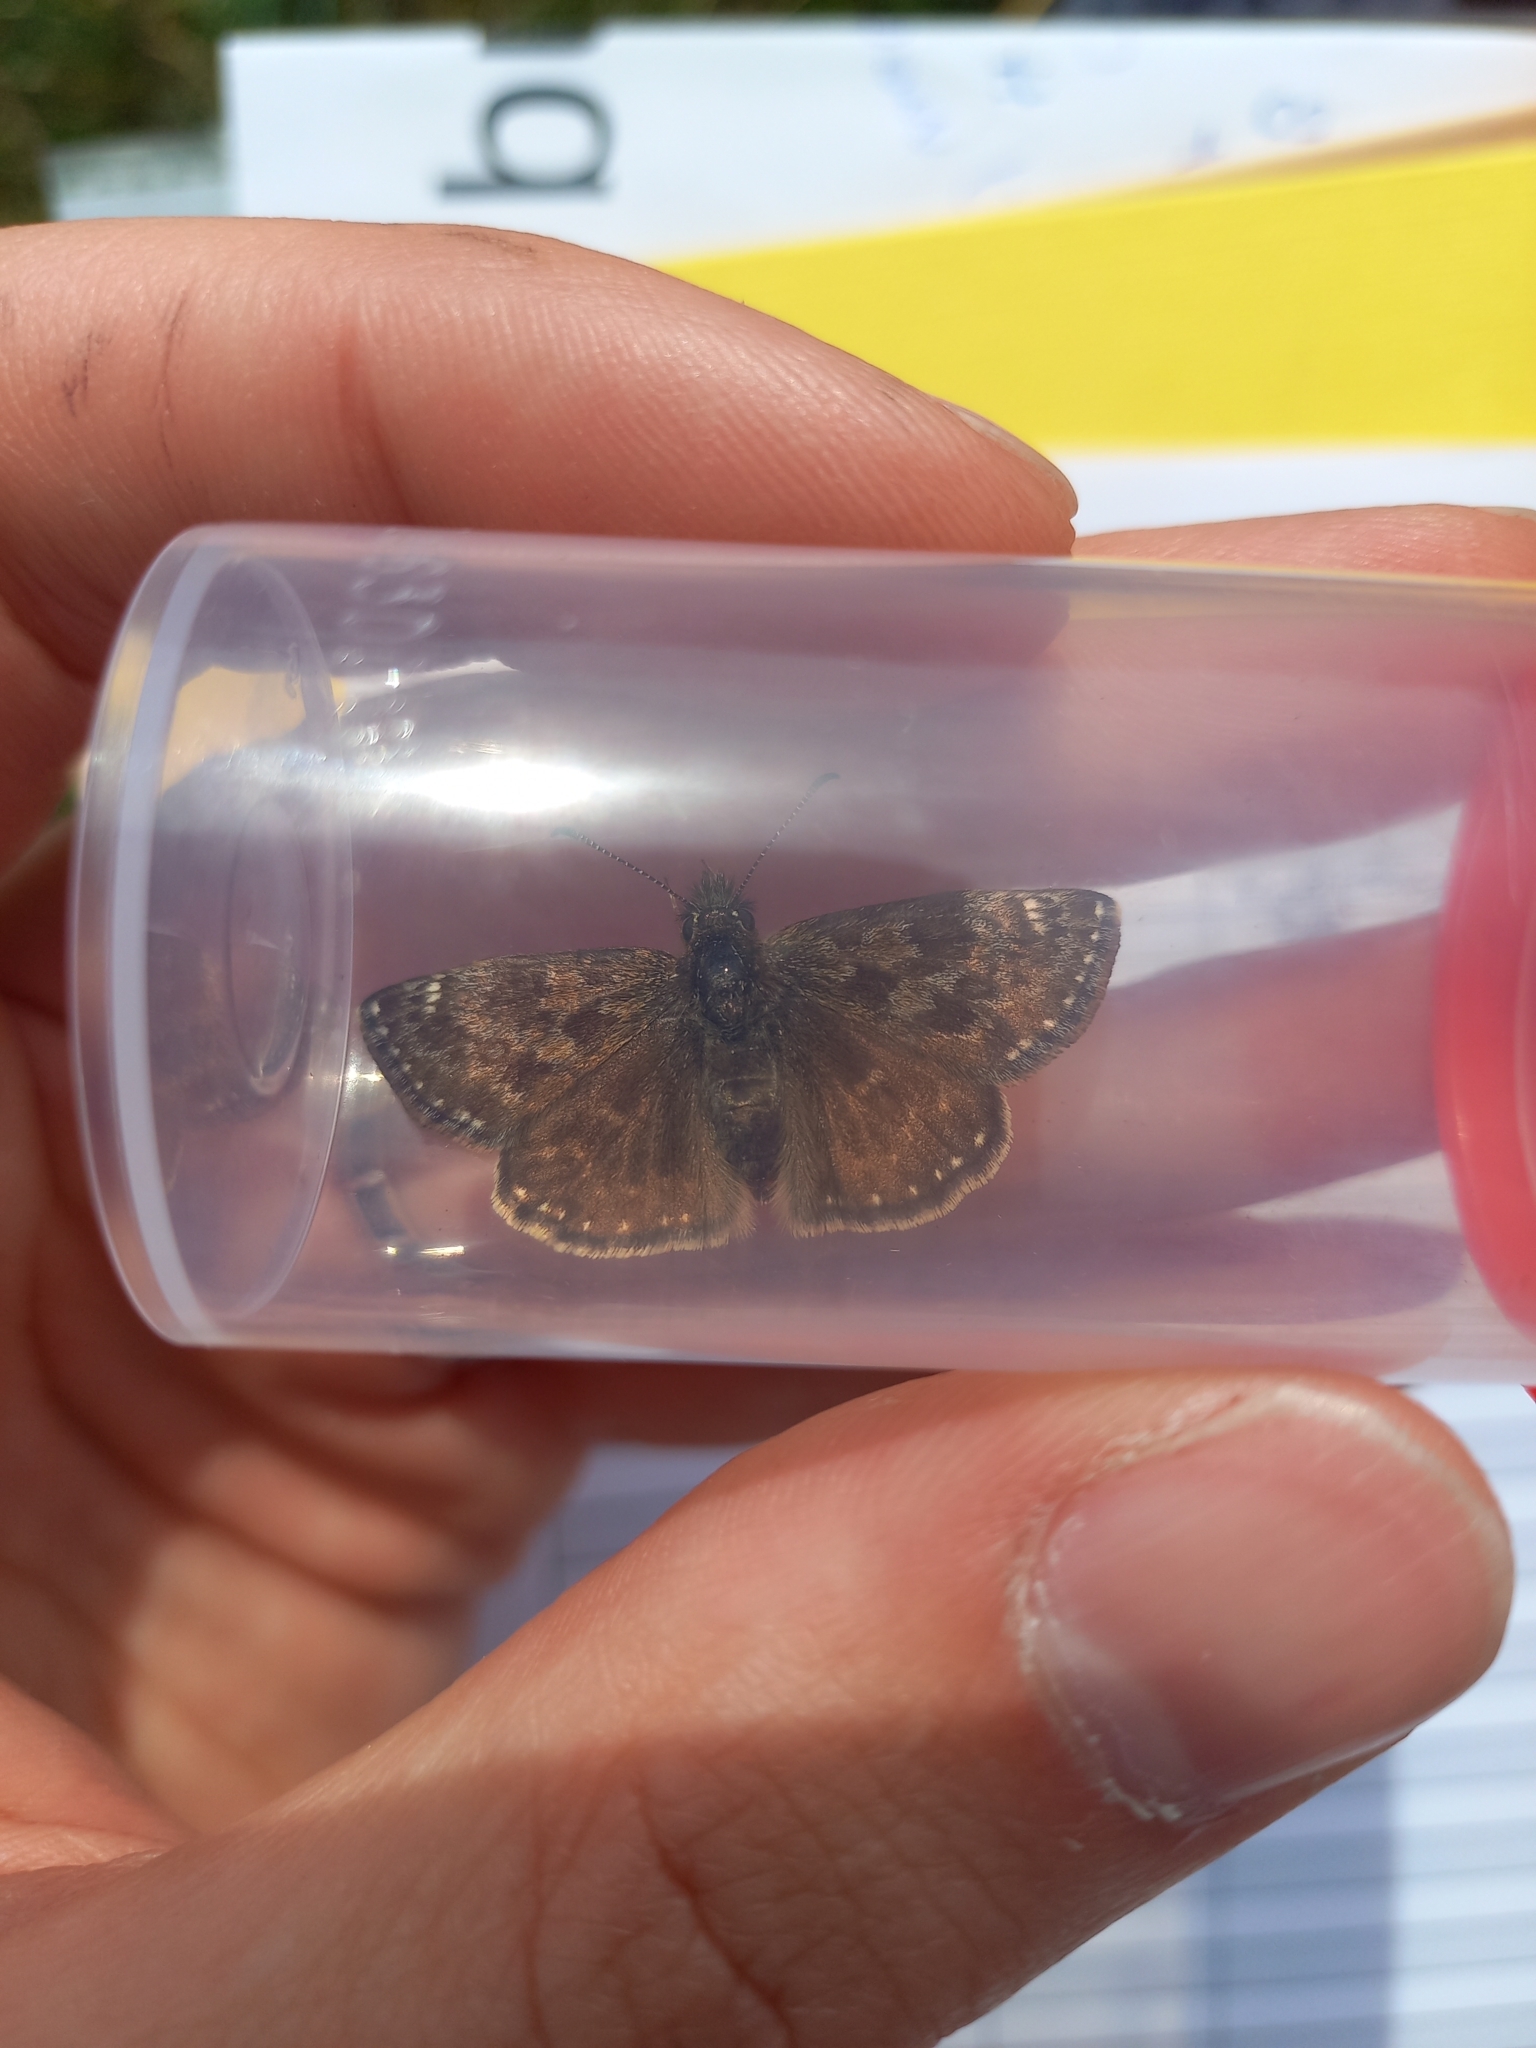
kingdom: Animalia
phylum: Arthropoda
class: Insecta
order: Lepidoptera
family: Hesperiidae
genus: Erynnis
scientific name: Erynnis tages
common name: Dingy skipper
